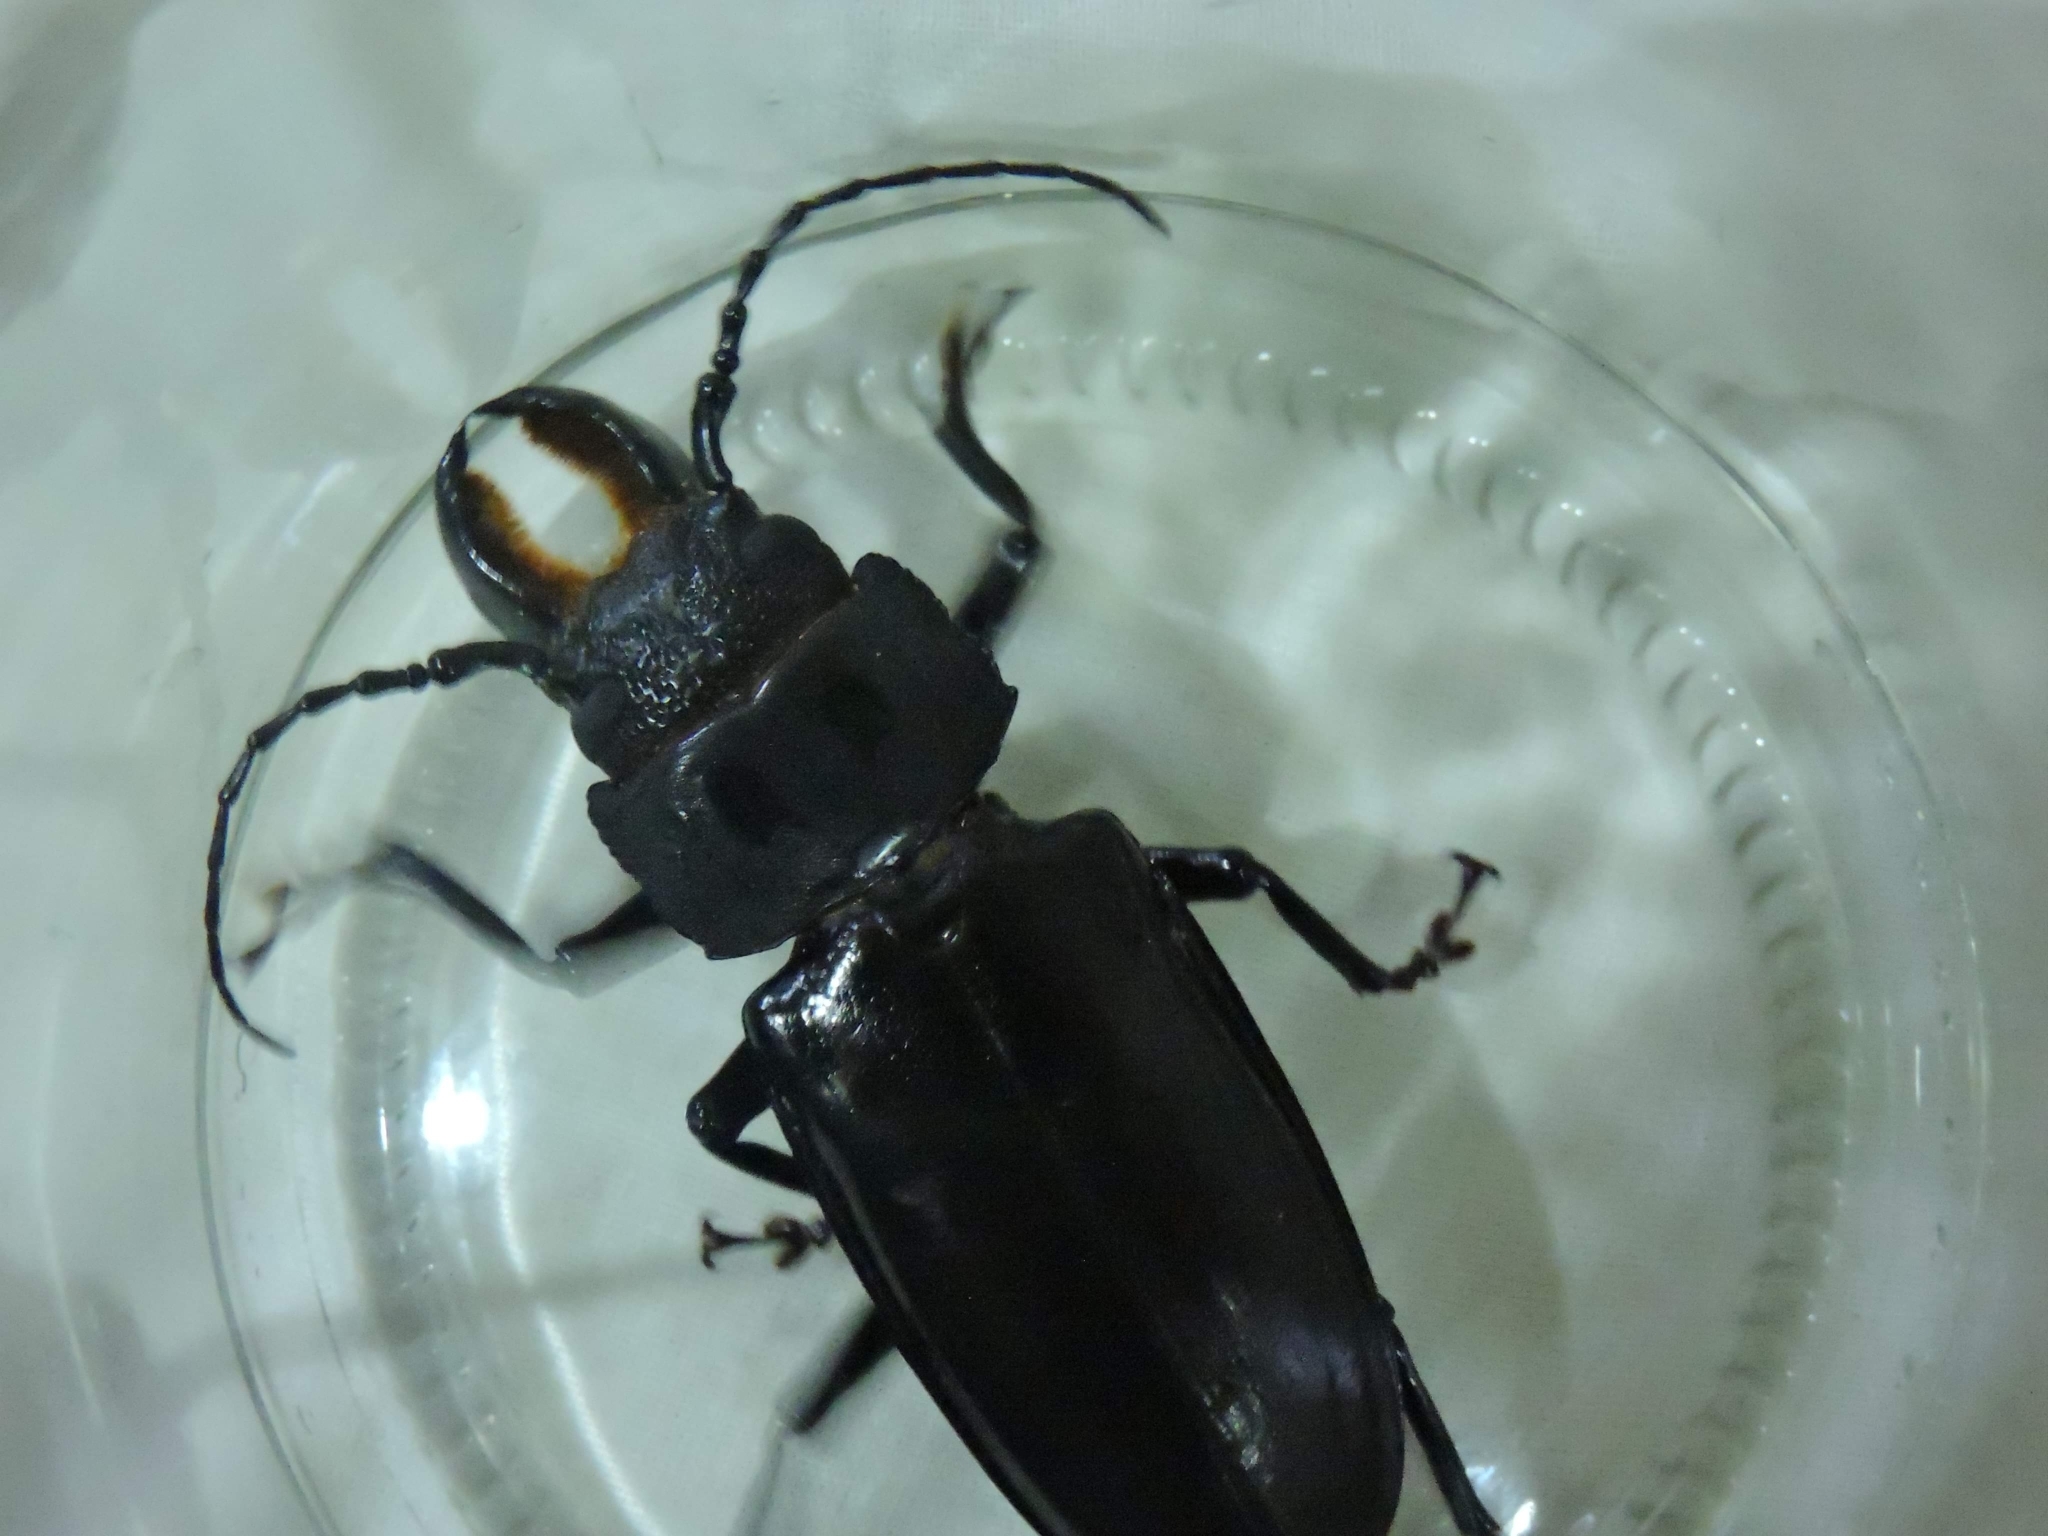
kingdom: Animalia
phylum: Arthropoda
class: Insecta
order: Coleoptera
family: Cerambycidae
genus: Mallodon
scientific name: Mallodon dasystomum
